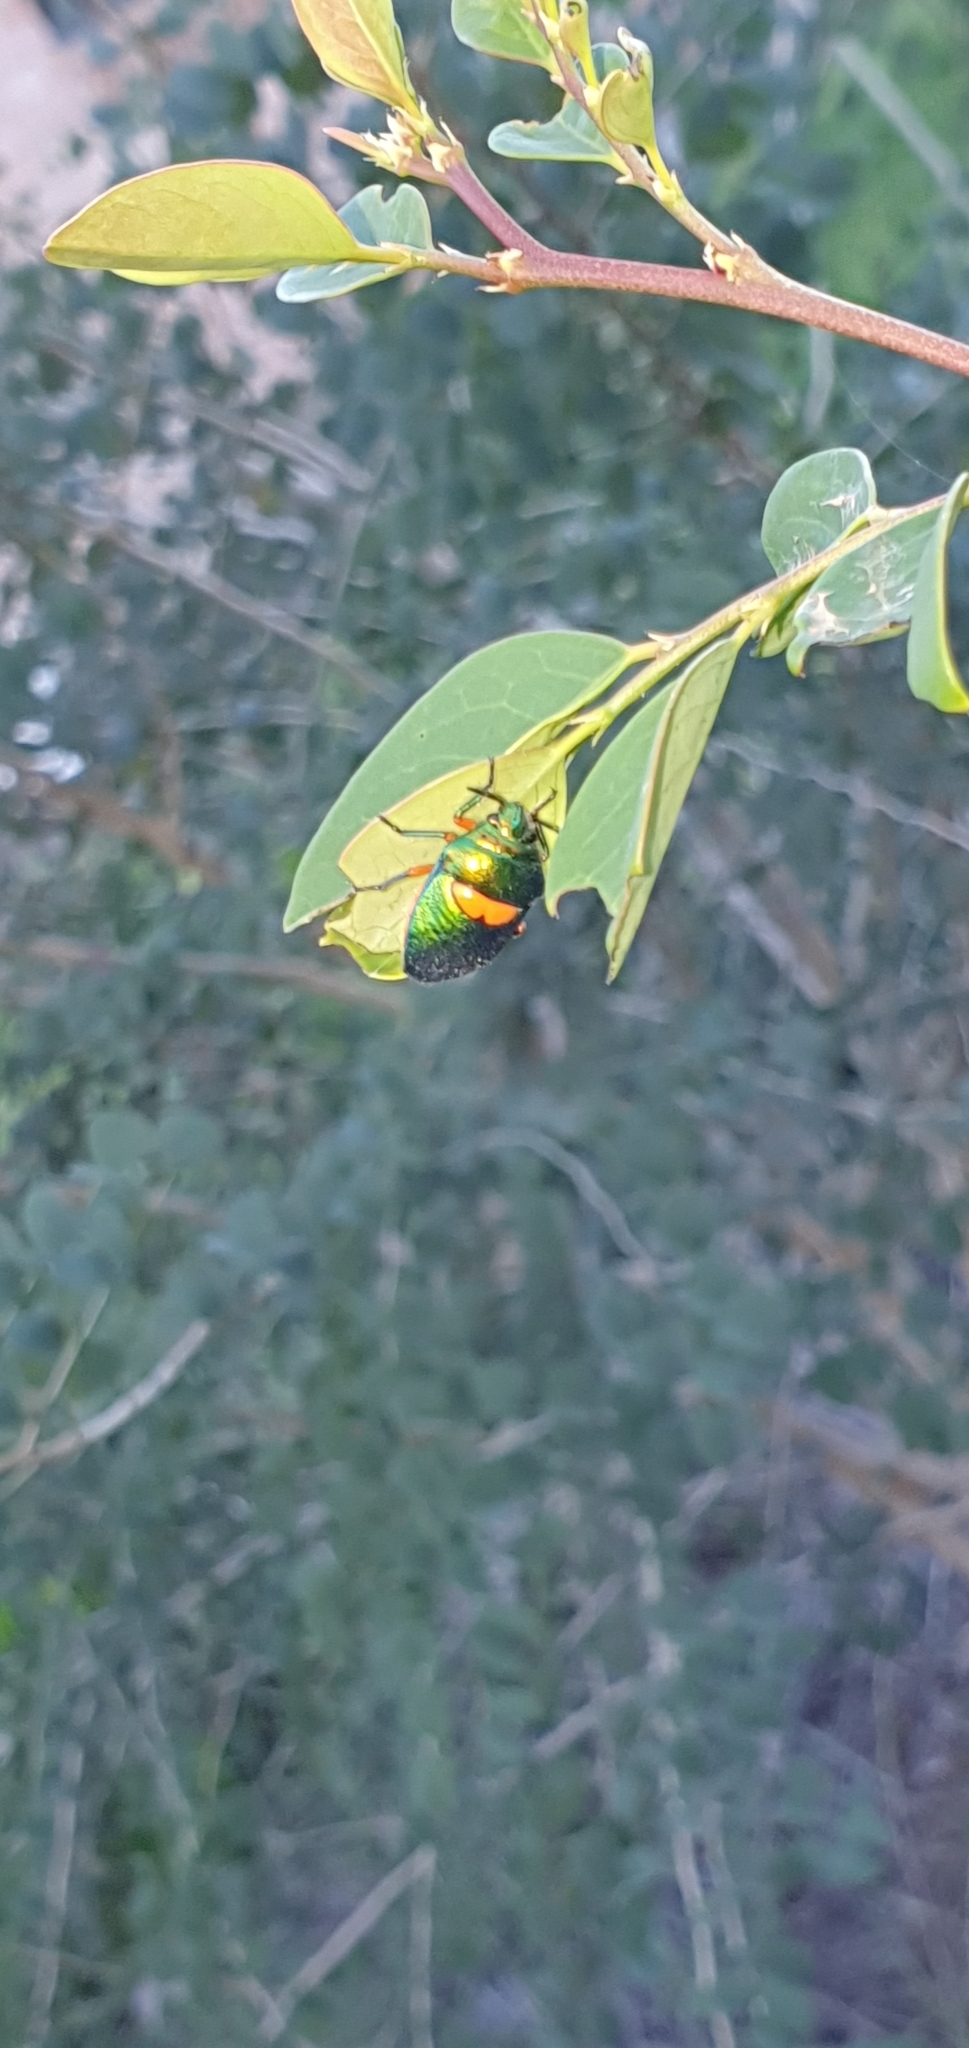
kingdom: Animalia
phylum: Arthropoda
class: Insecta
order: Hemiptera
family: Scutelleridae
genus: Lampromicra
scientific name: Lampromicra senator
